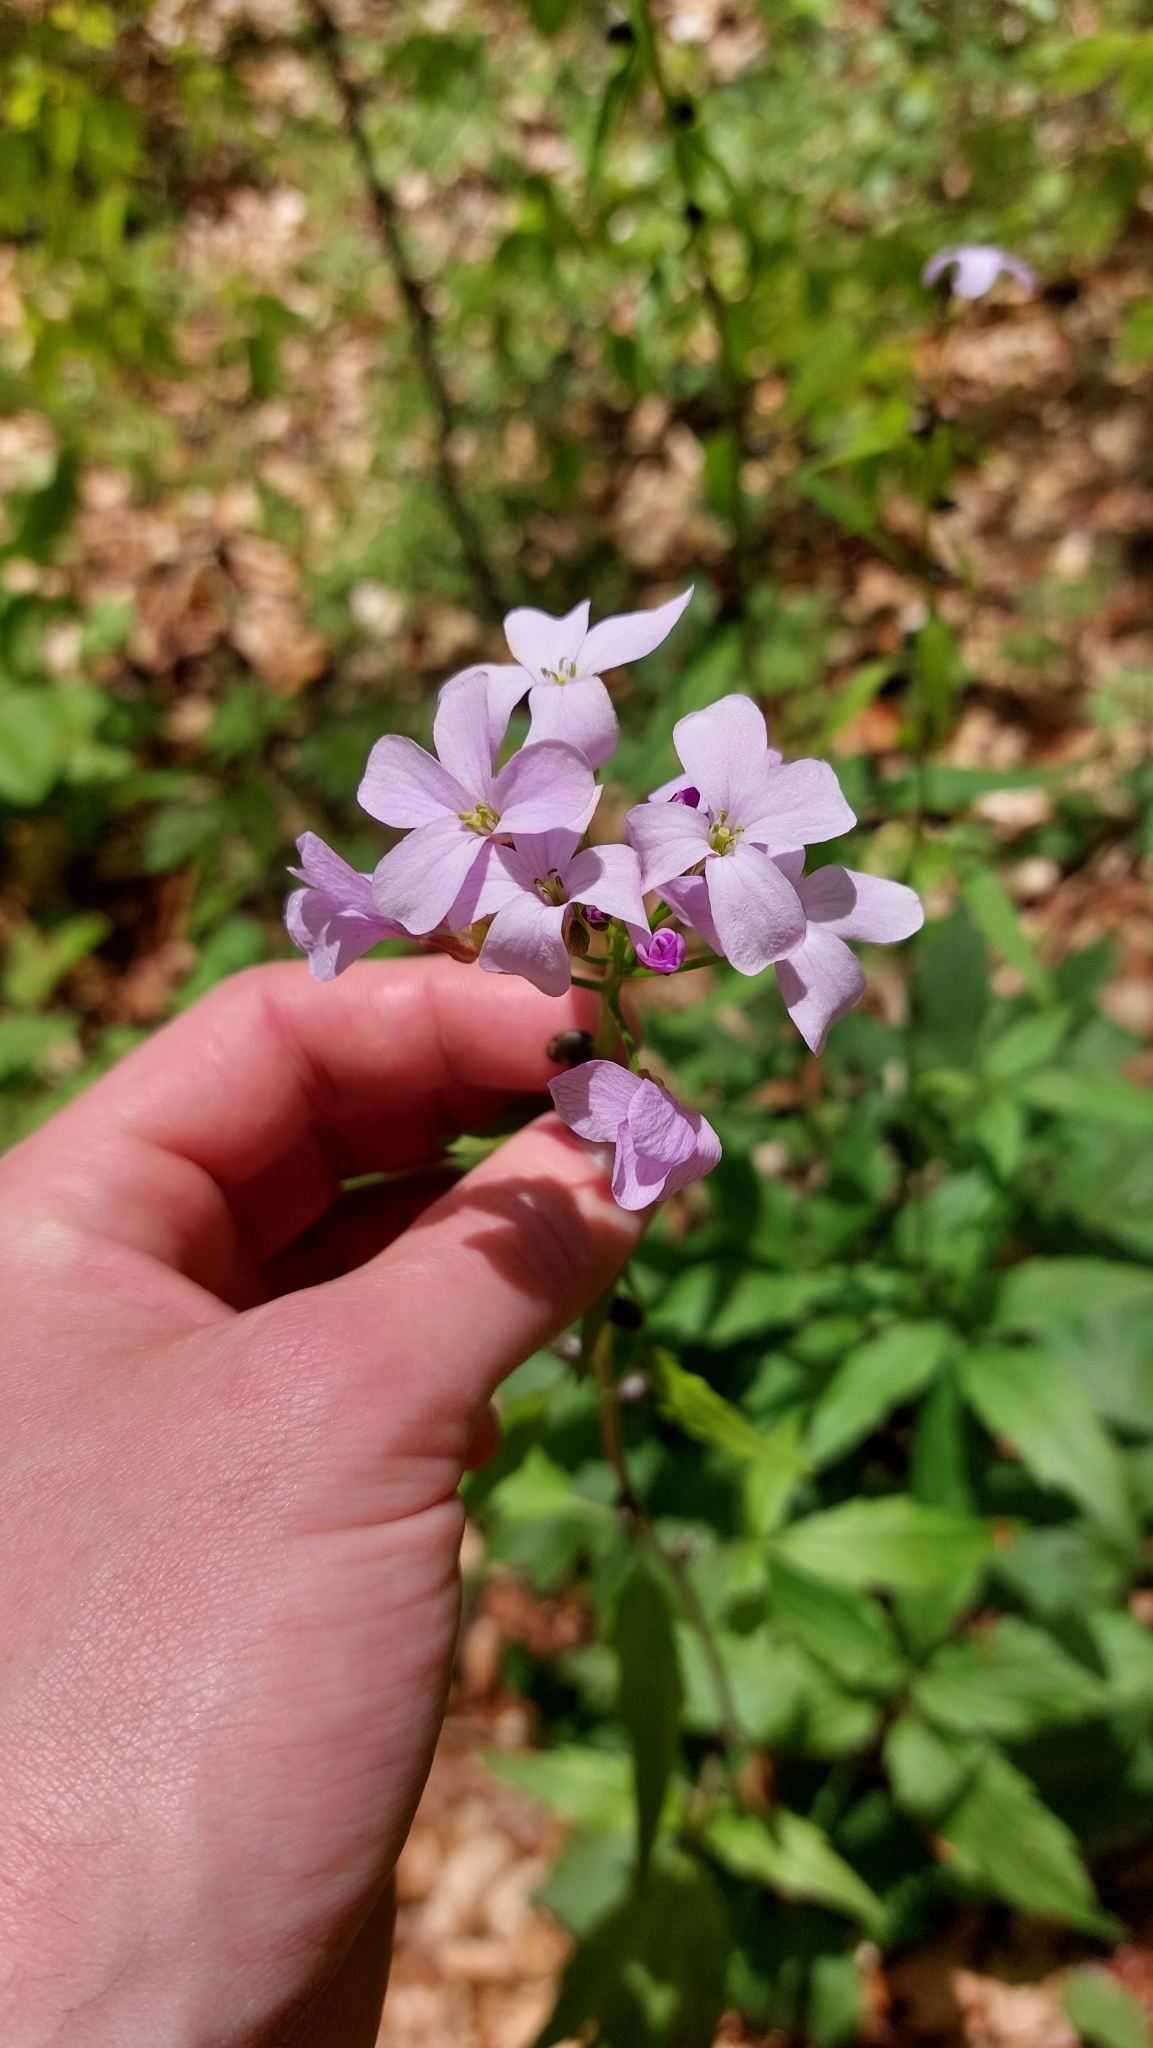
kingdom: Plantae
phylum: Tracheophyta
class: Magnoliopsida
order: Brassicales
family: Brassicaceae
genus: Cardamine
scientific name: Cardamine bulbifera
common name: Coralroot bittercress
